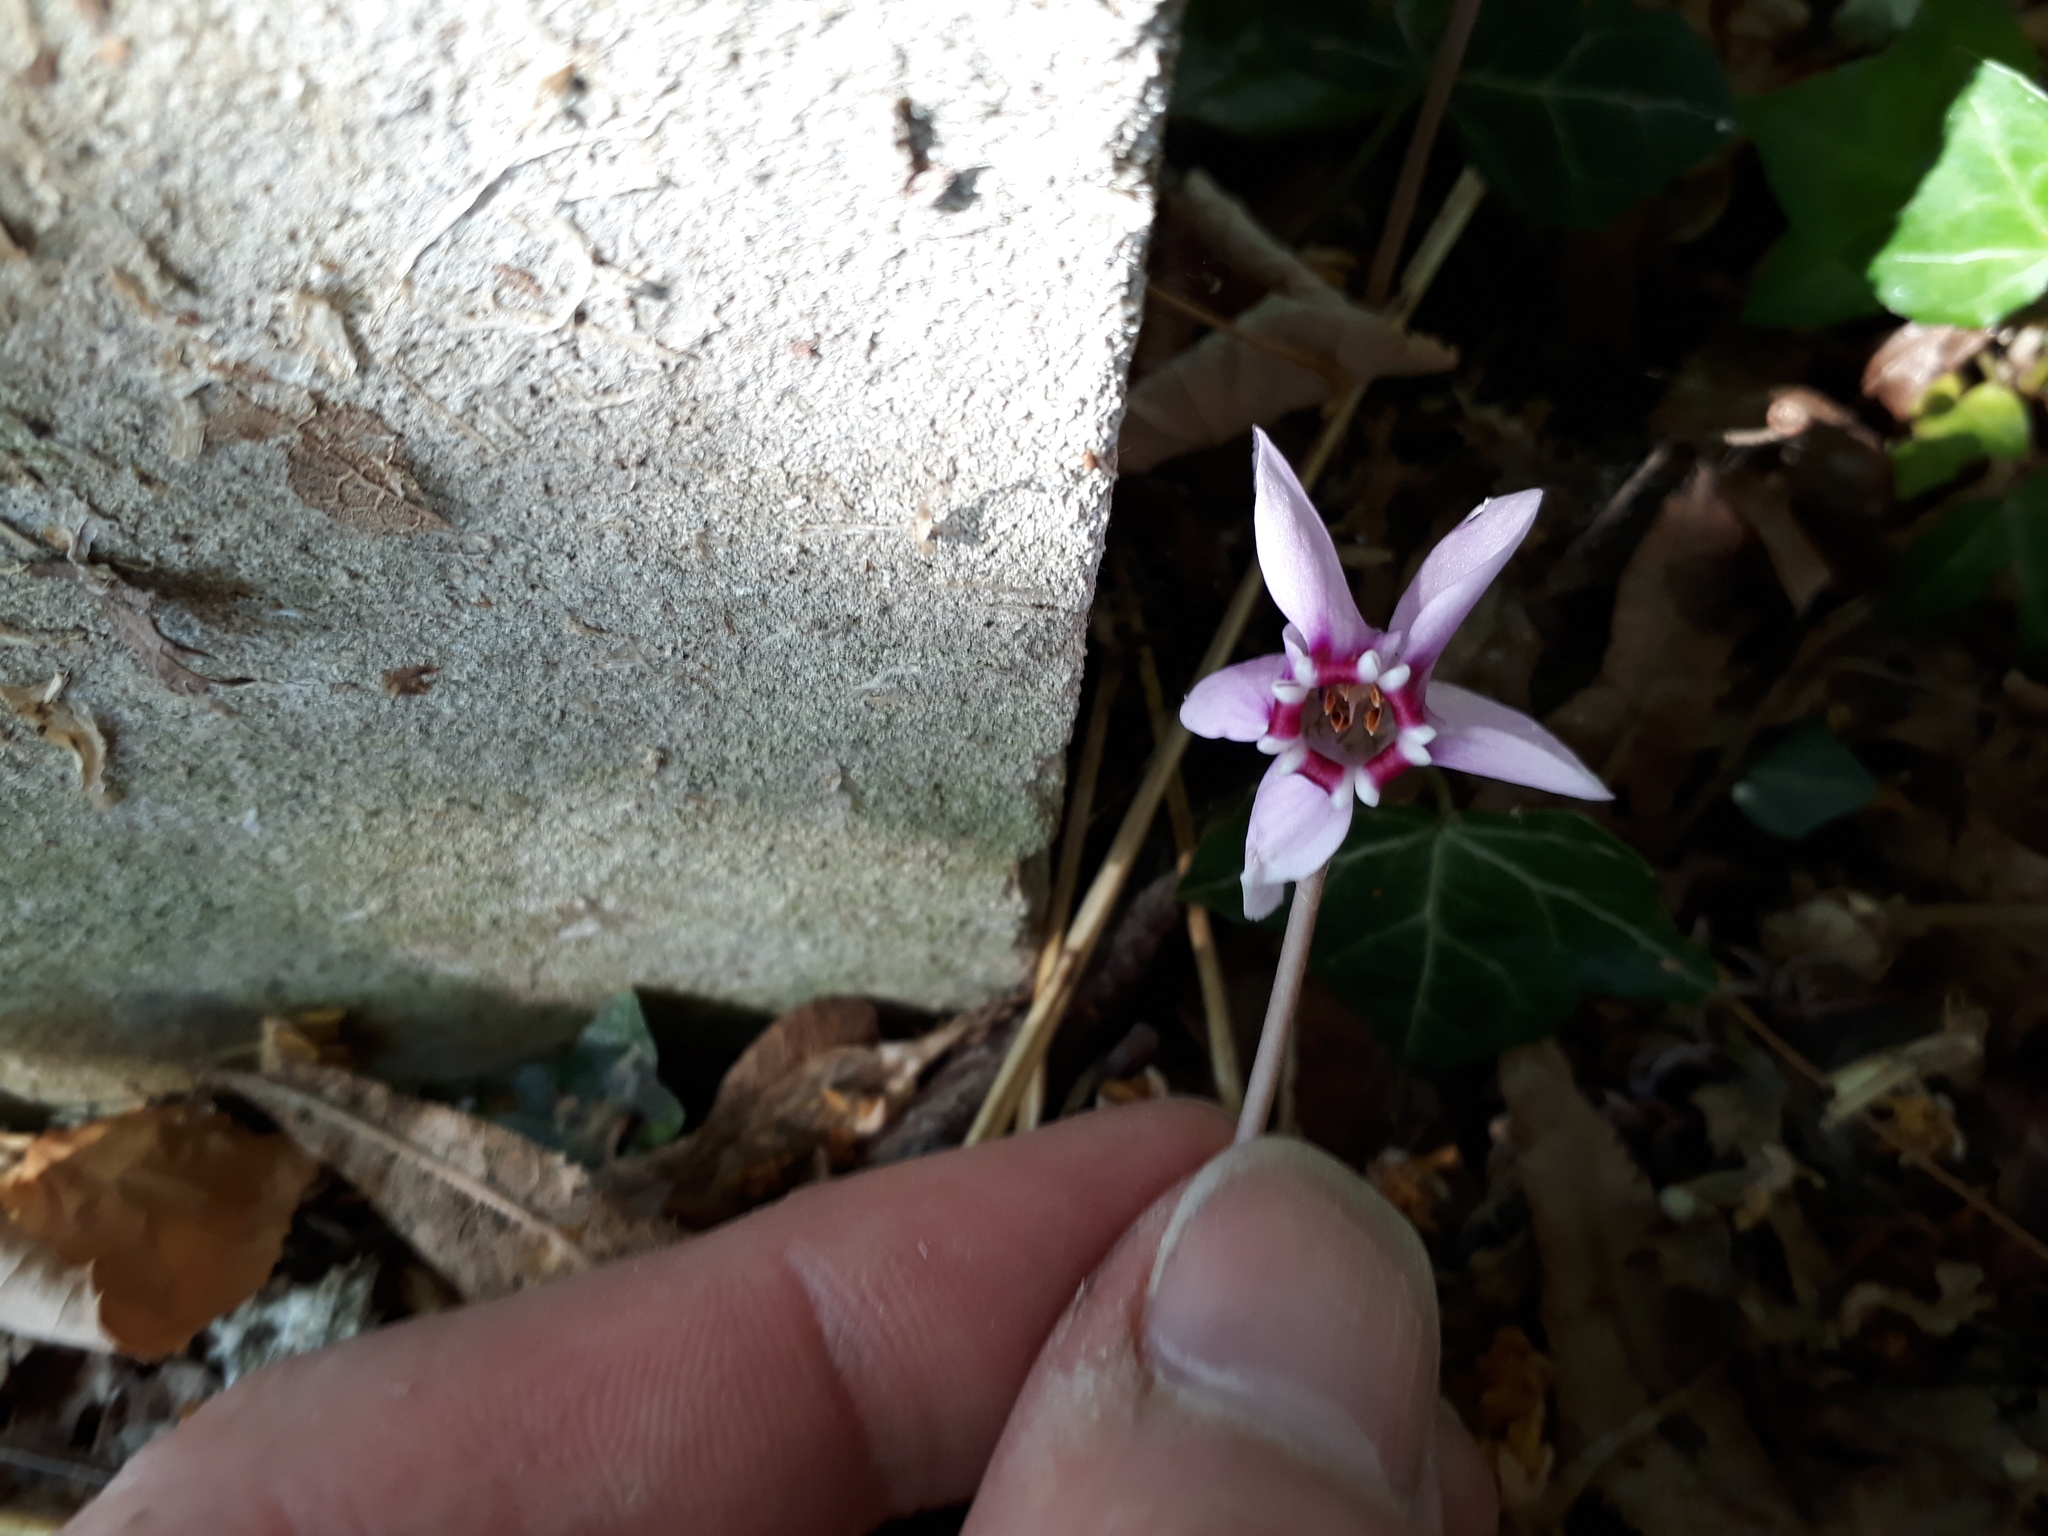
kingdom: Plantae
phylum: Tracheophyta
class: Magnoliopsida
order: Ericales
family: Primulaceae
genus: Cyclamen
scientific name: Cyclamen hederifolium
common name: Sowbread
